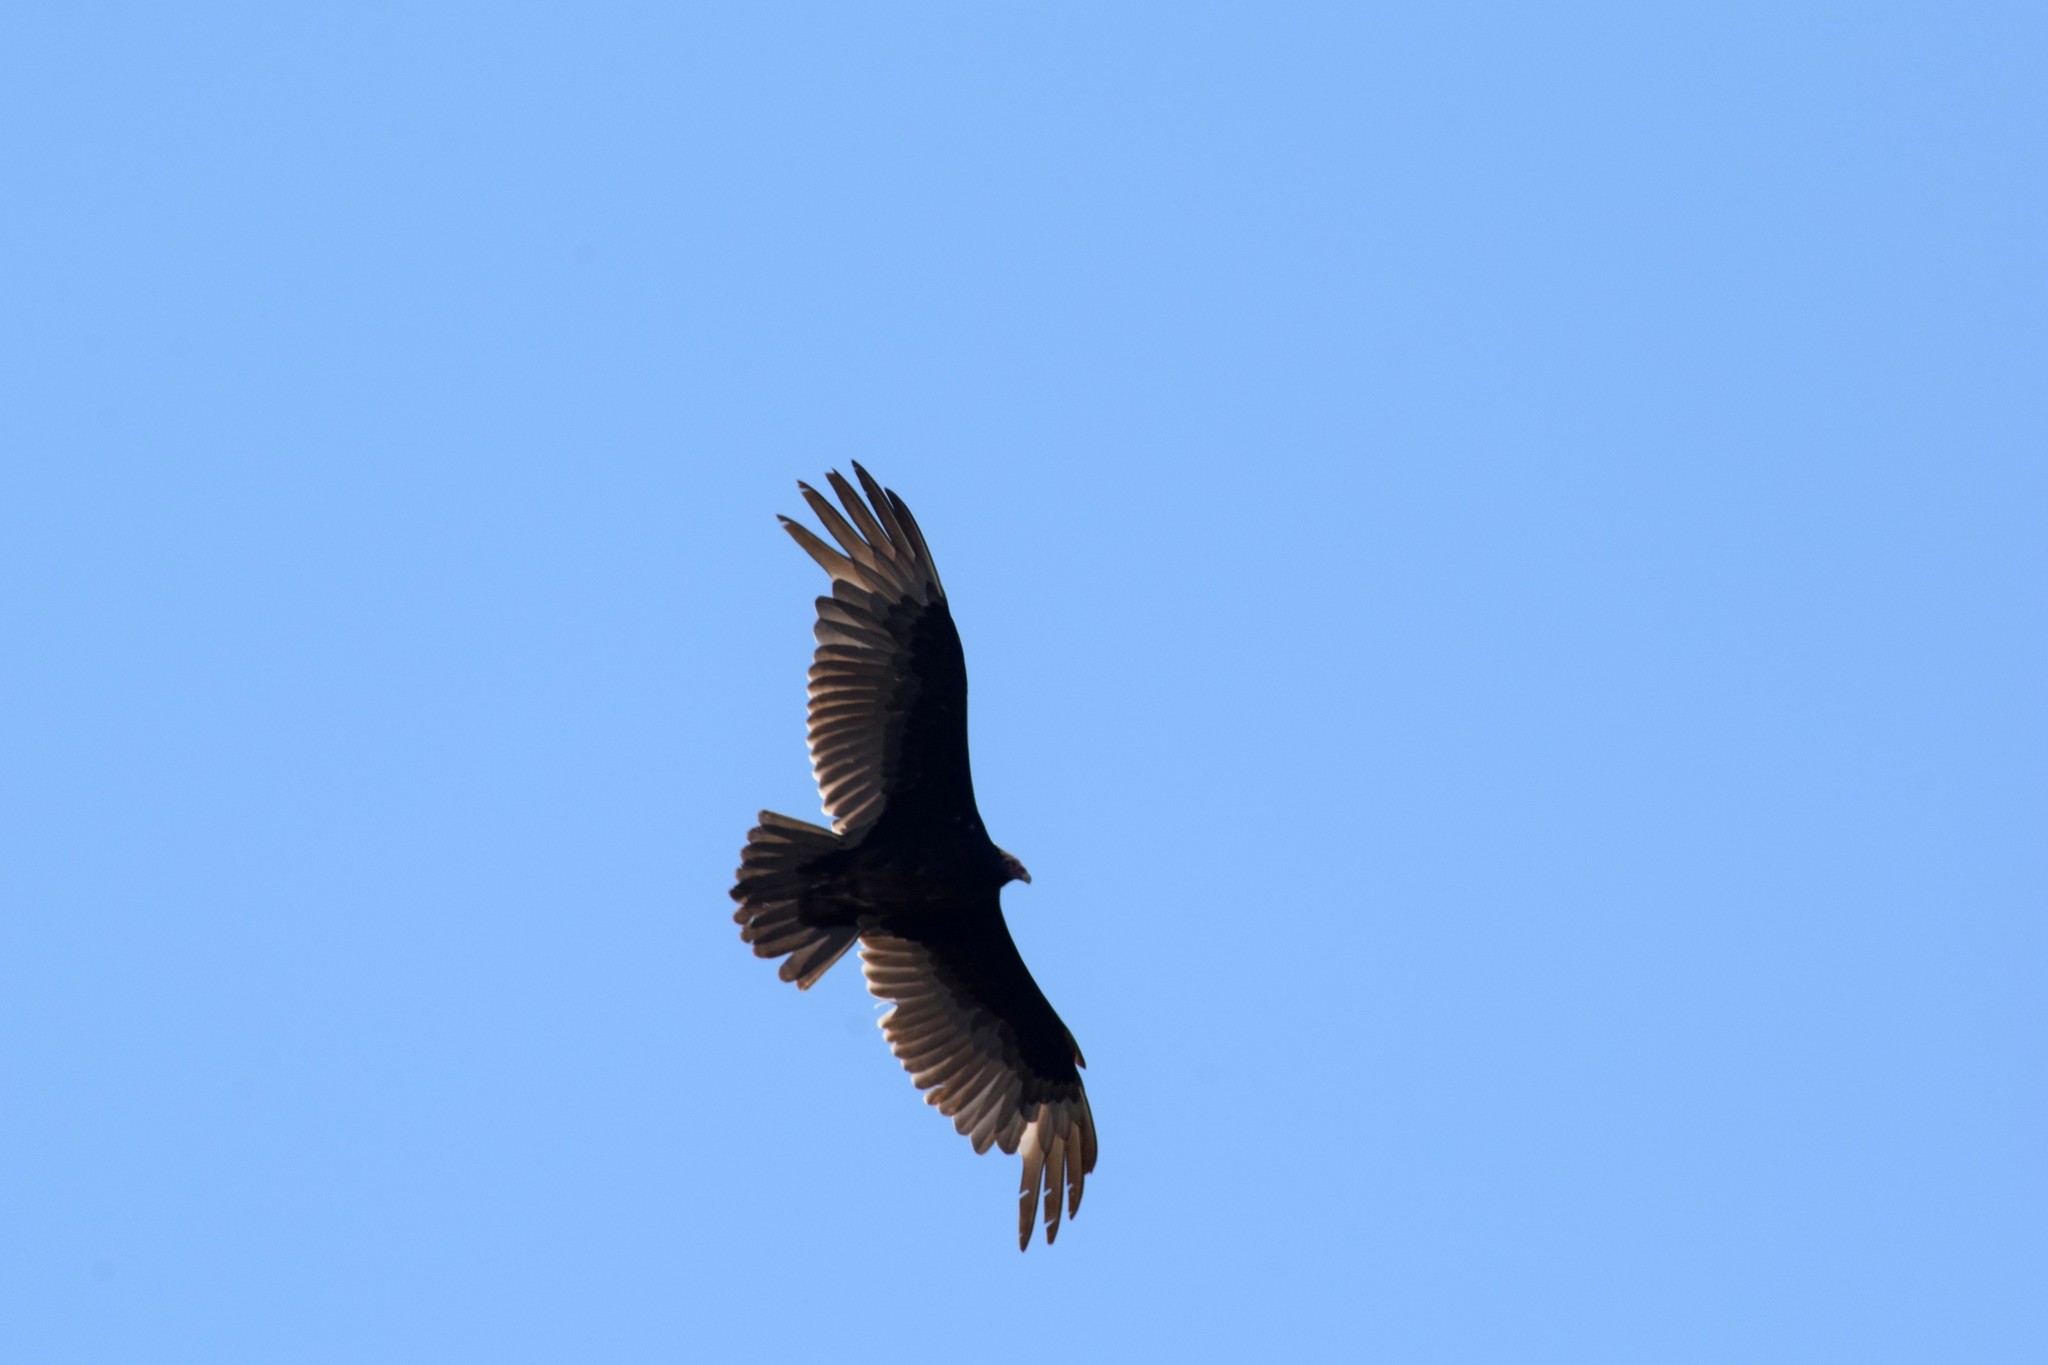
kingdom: Animalia
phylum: Chordata
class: Aves
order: Accipitriformes
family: Cathartidae
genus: Cathartes
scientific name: Cathartes aura
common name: Turkey vulture
